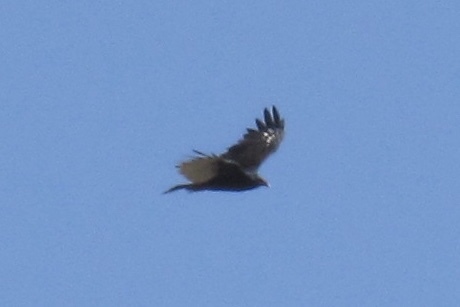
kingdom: Animalia
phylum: Chordata
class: Aves
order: Accipitriformes
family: Cathartidae
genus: Cathartes
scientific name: Cathartes aura
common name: Turkey vulture
